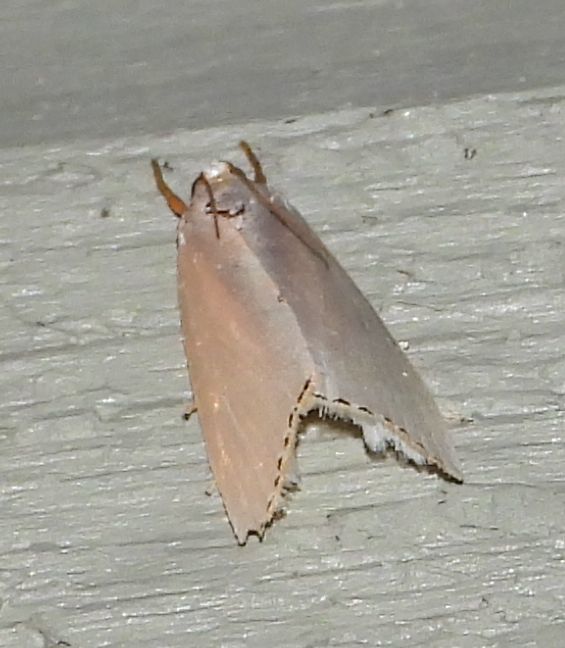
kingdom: Animalia
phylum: Arthropoda
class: Insecta
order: Lepidoptera
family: Crambidae
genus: Argyria
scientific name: Argyria nivalis
